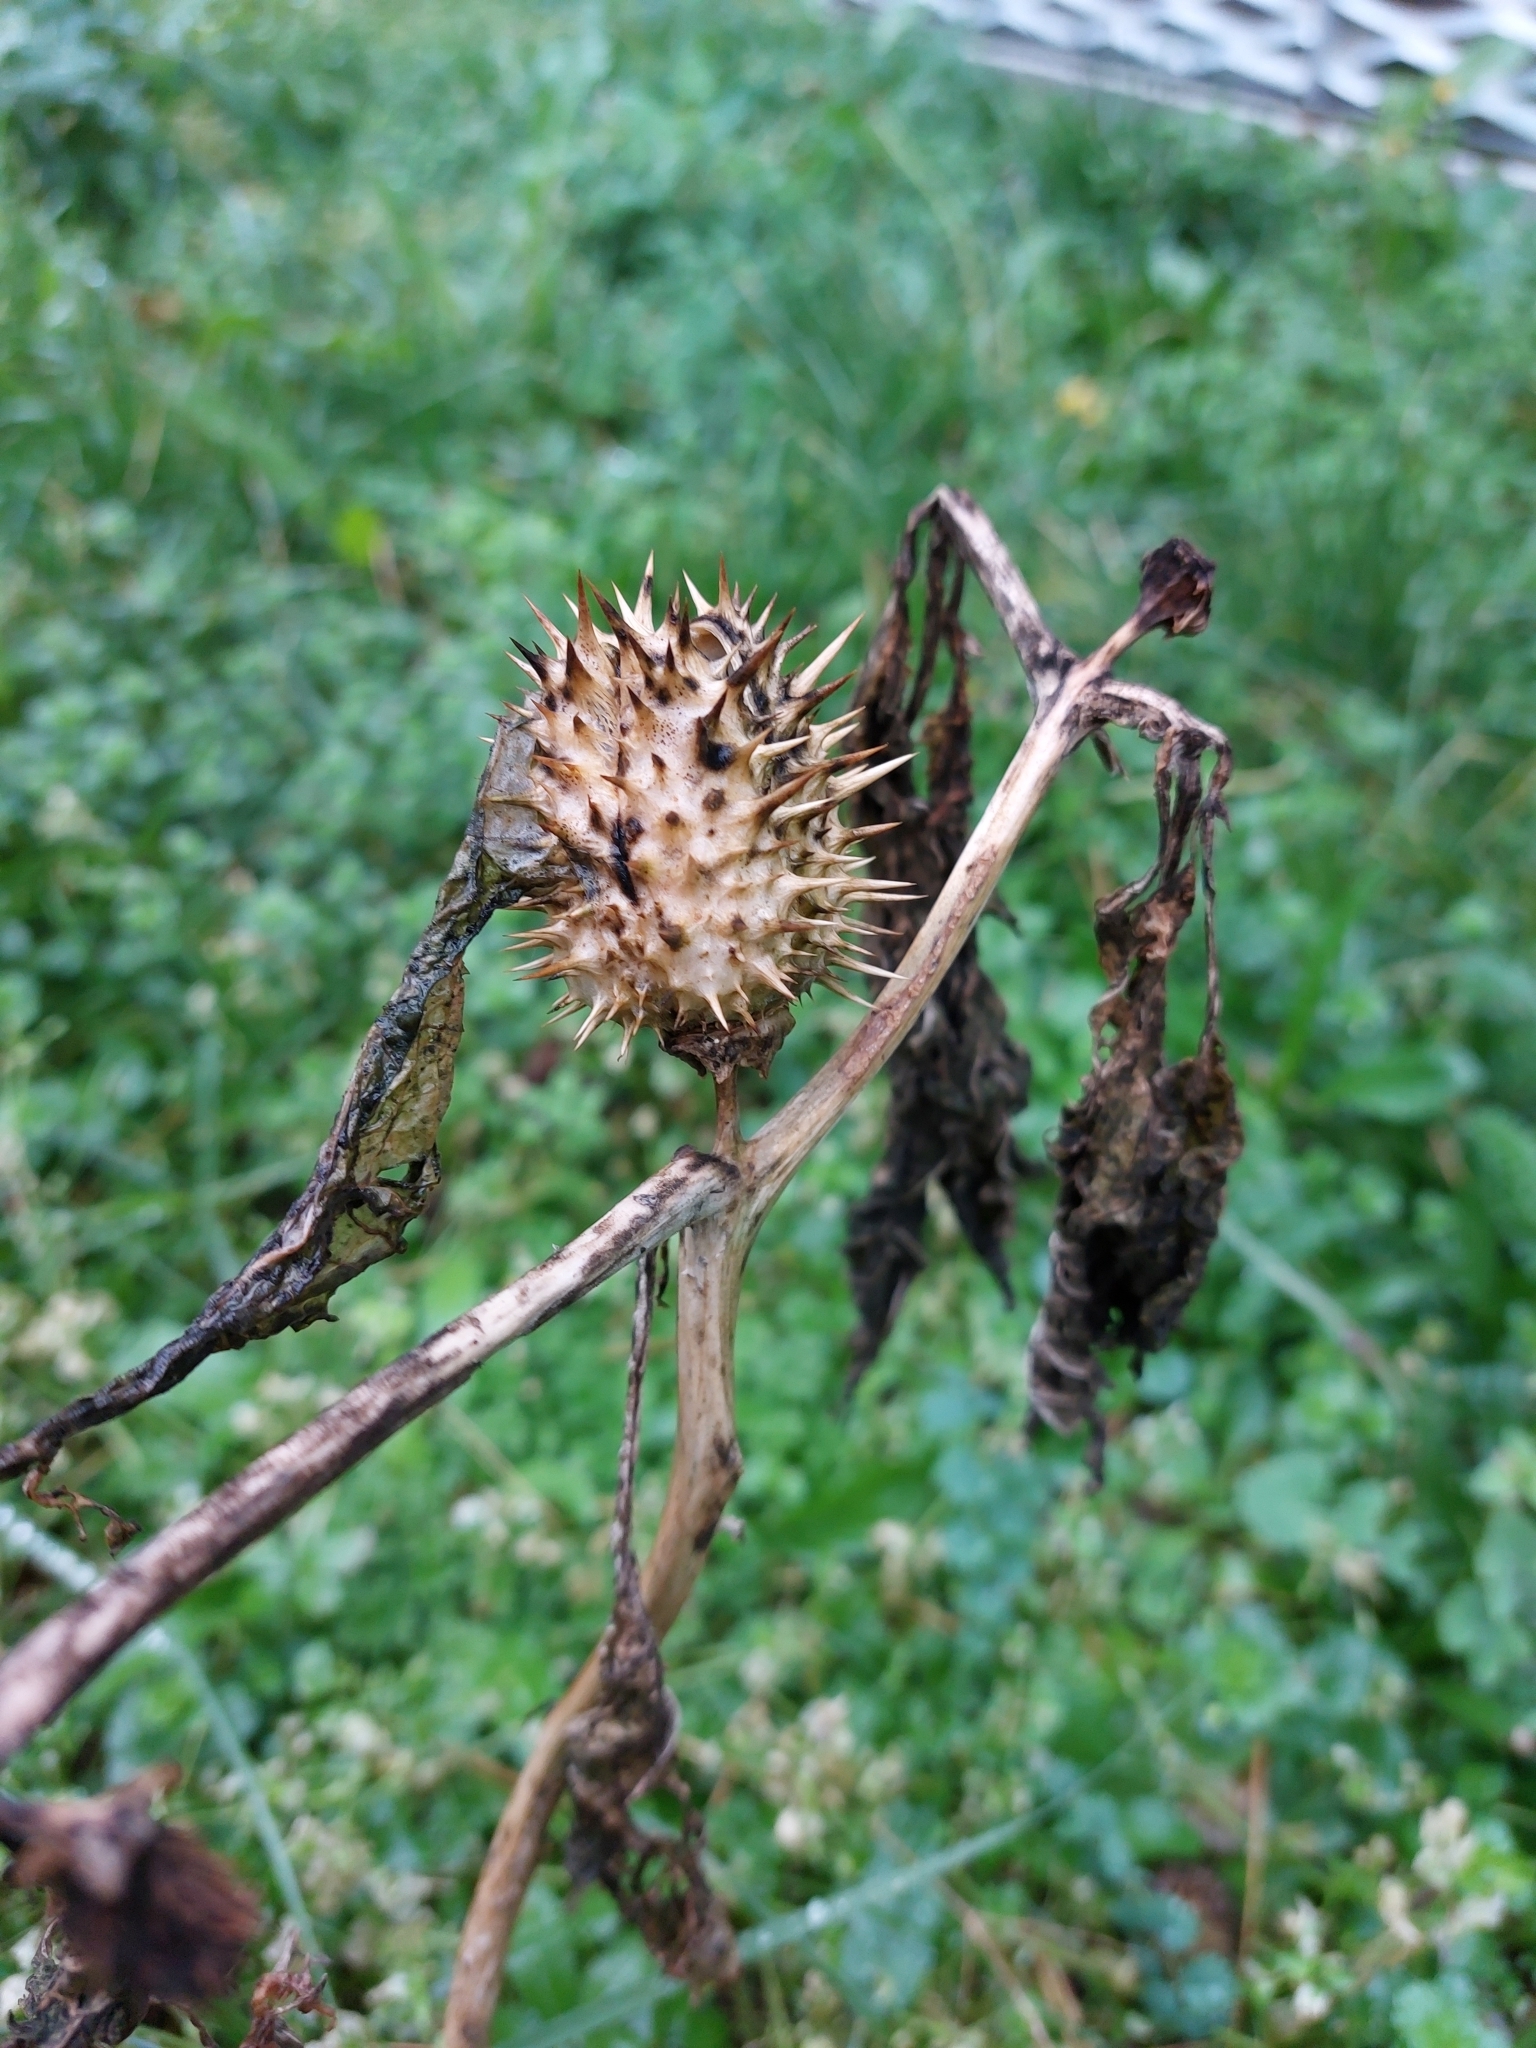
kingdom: Plantae
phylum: Tracheophyta
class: Magnoliopsida
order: Solanales
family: Solanaceae
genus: Datura
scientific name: Datura stramonium
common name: Thorn-apple
